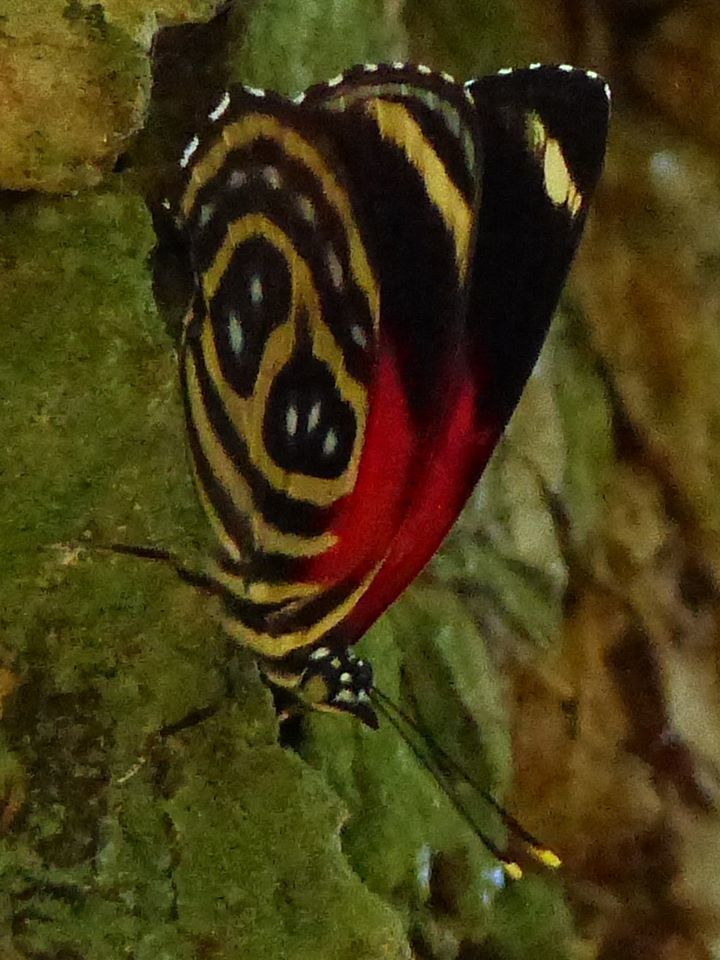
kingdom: Animalia
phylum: Arthropoda
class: Insecta
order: Lepidoptera
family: Nymphalidae
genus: Catagramma
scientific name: Catagramma pygas
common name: Godart's numberwing
